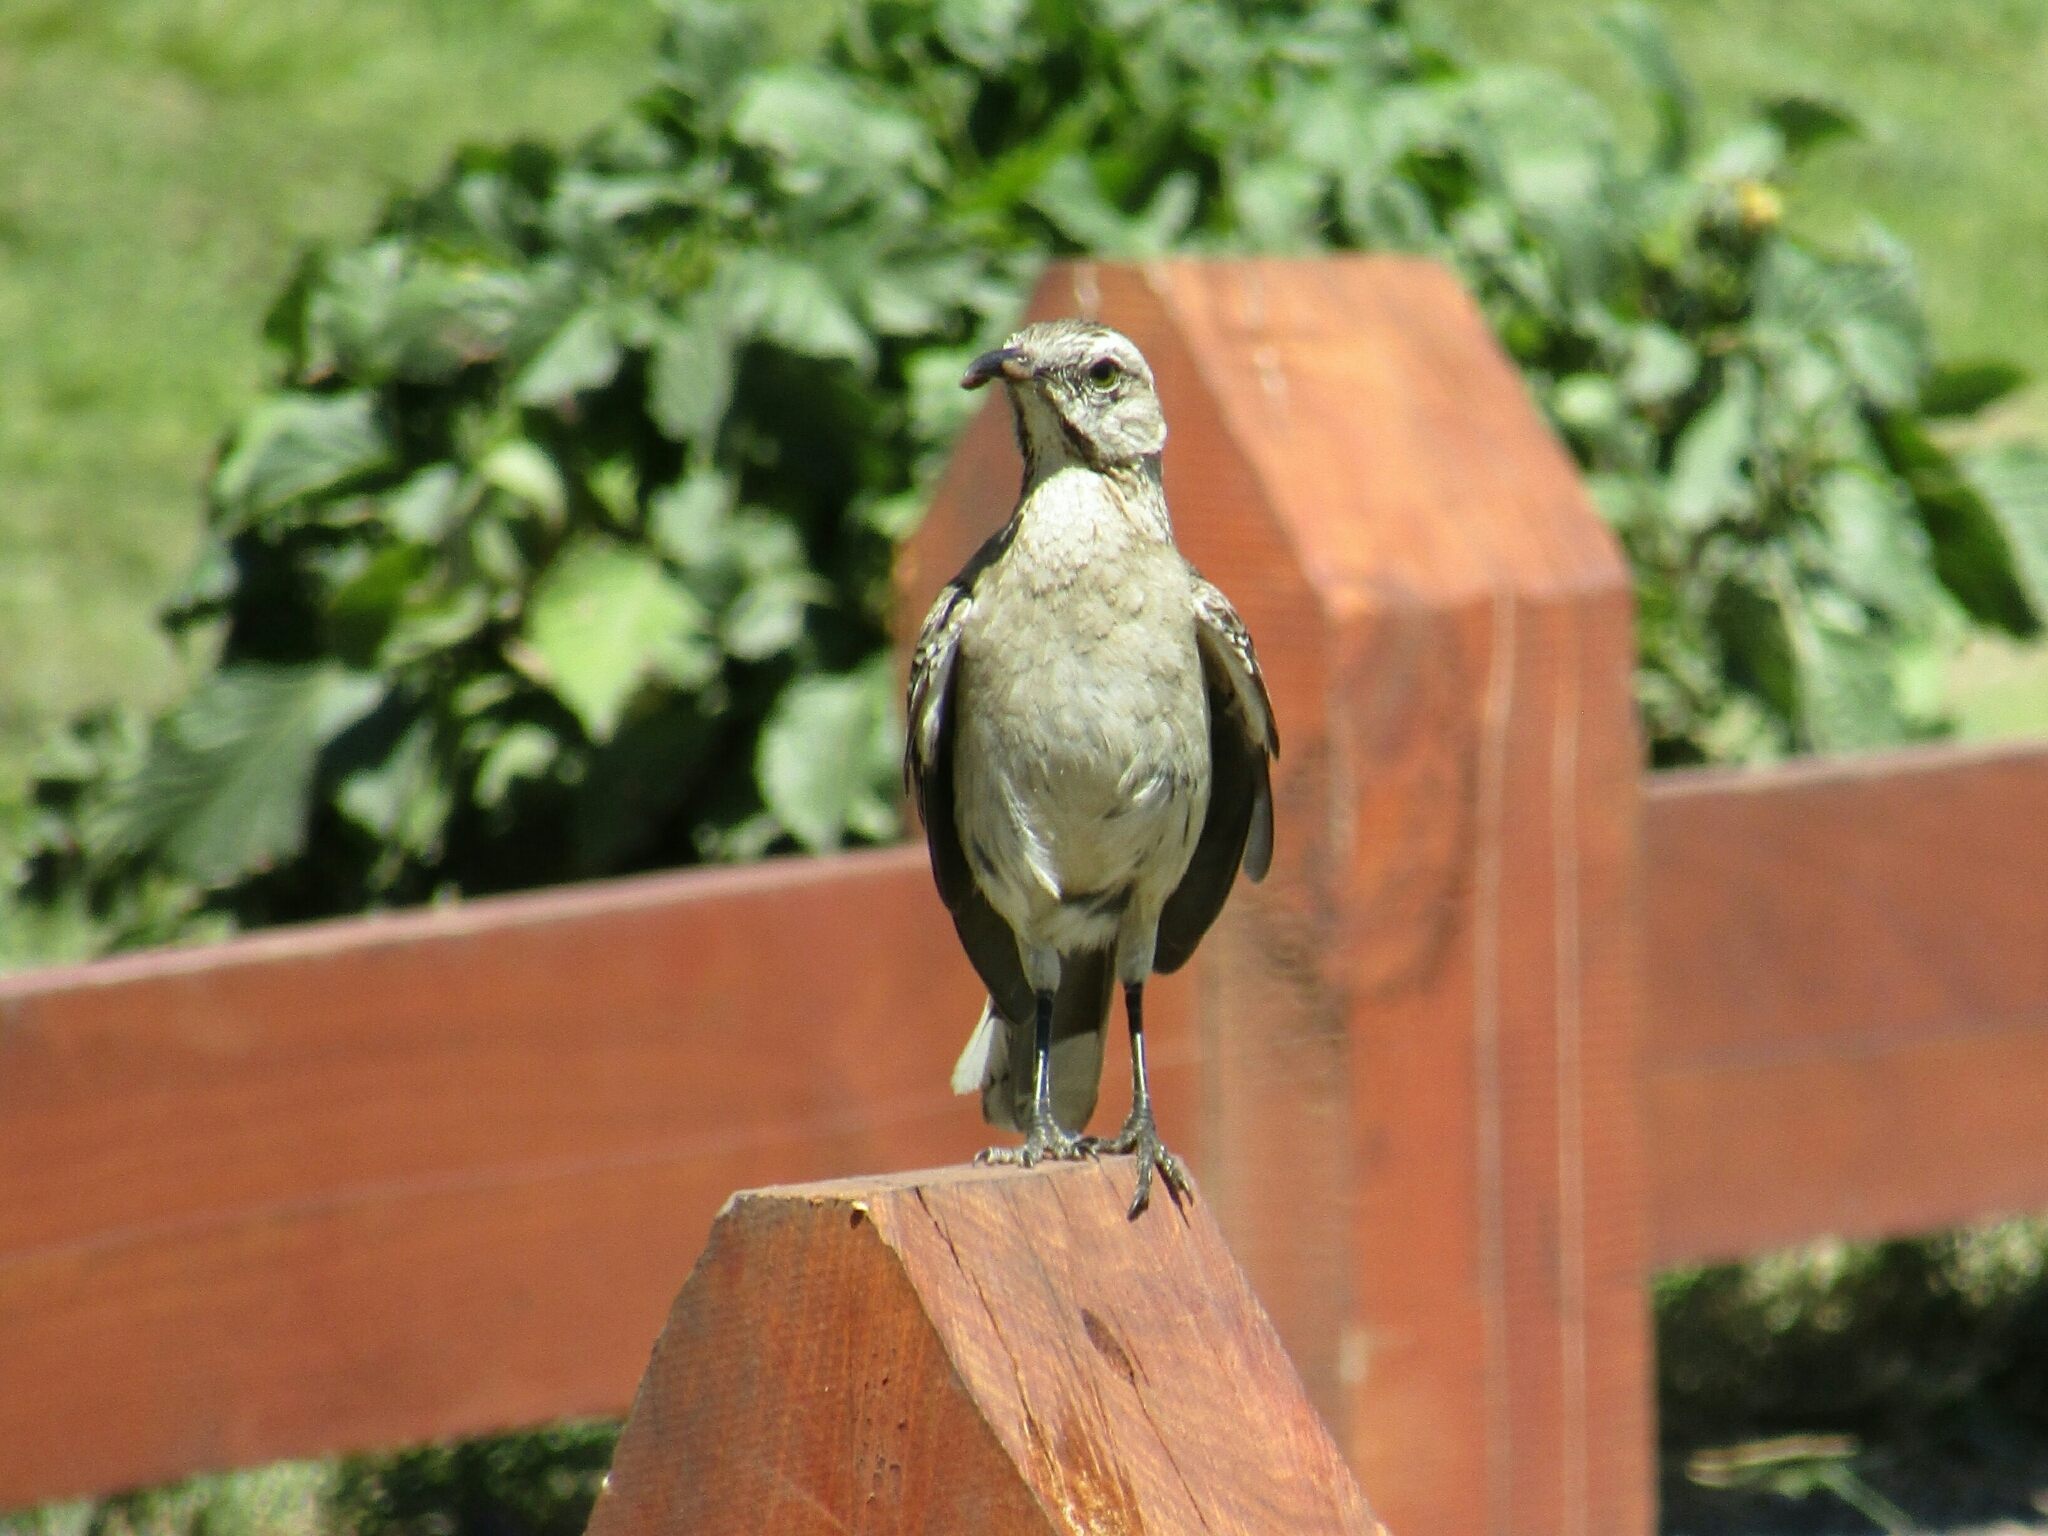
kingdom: Animalia
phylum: Chordata
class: Aves
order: Passeriformes
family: Mimidae
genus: Mimus
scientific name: Mimus thenca
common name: Chilean mockingbird
